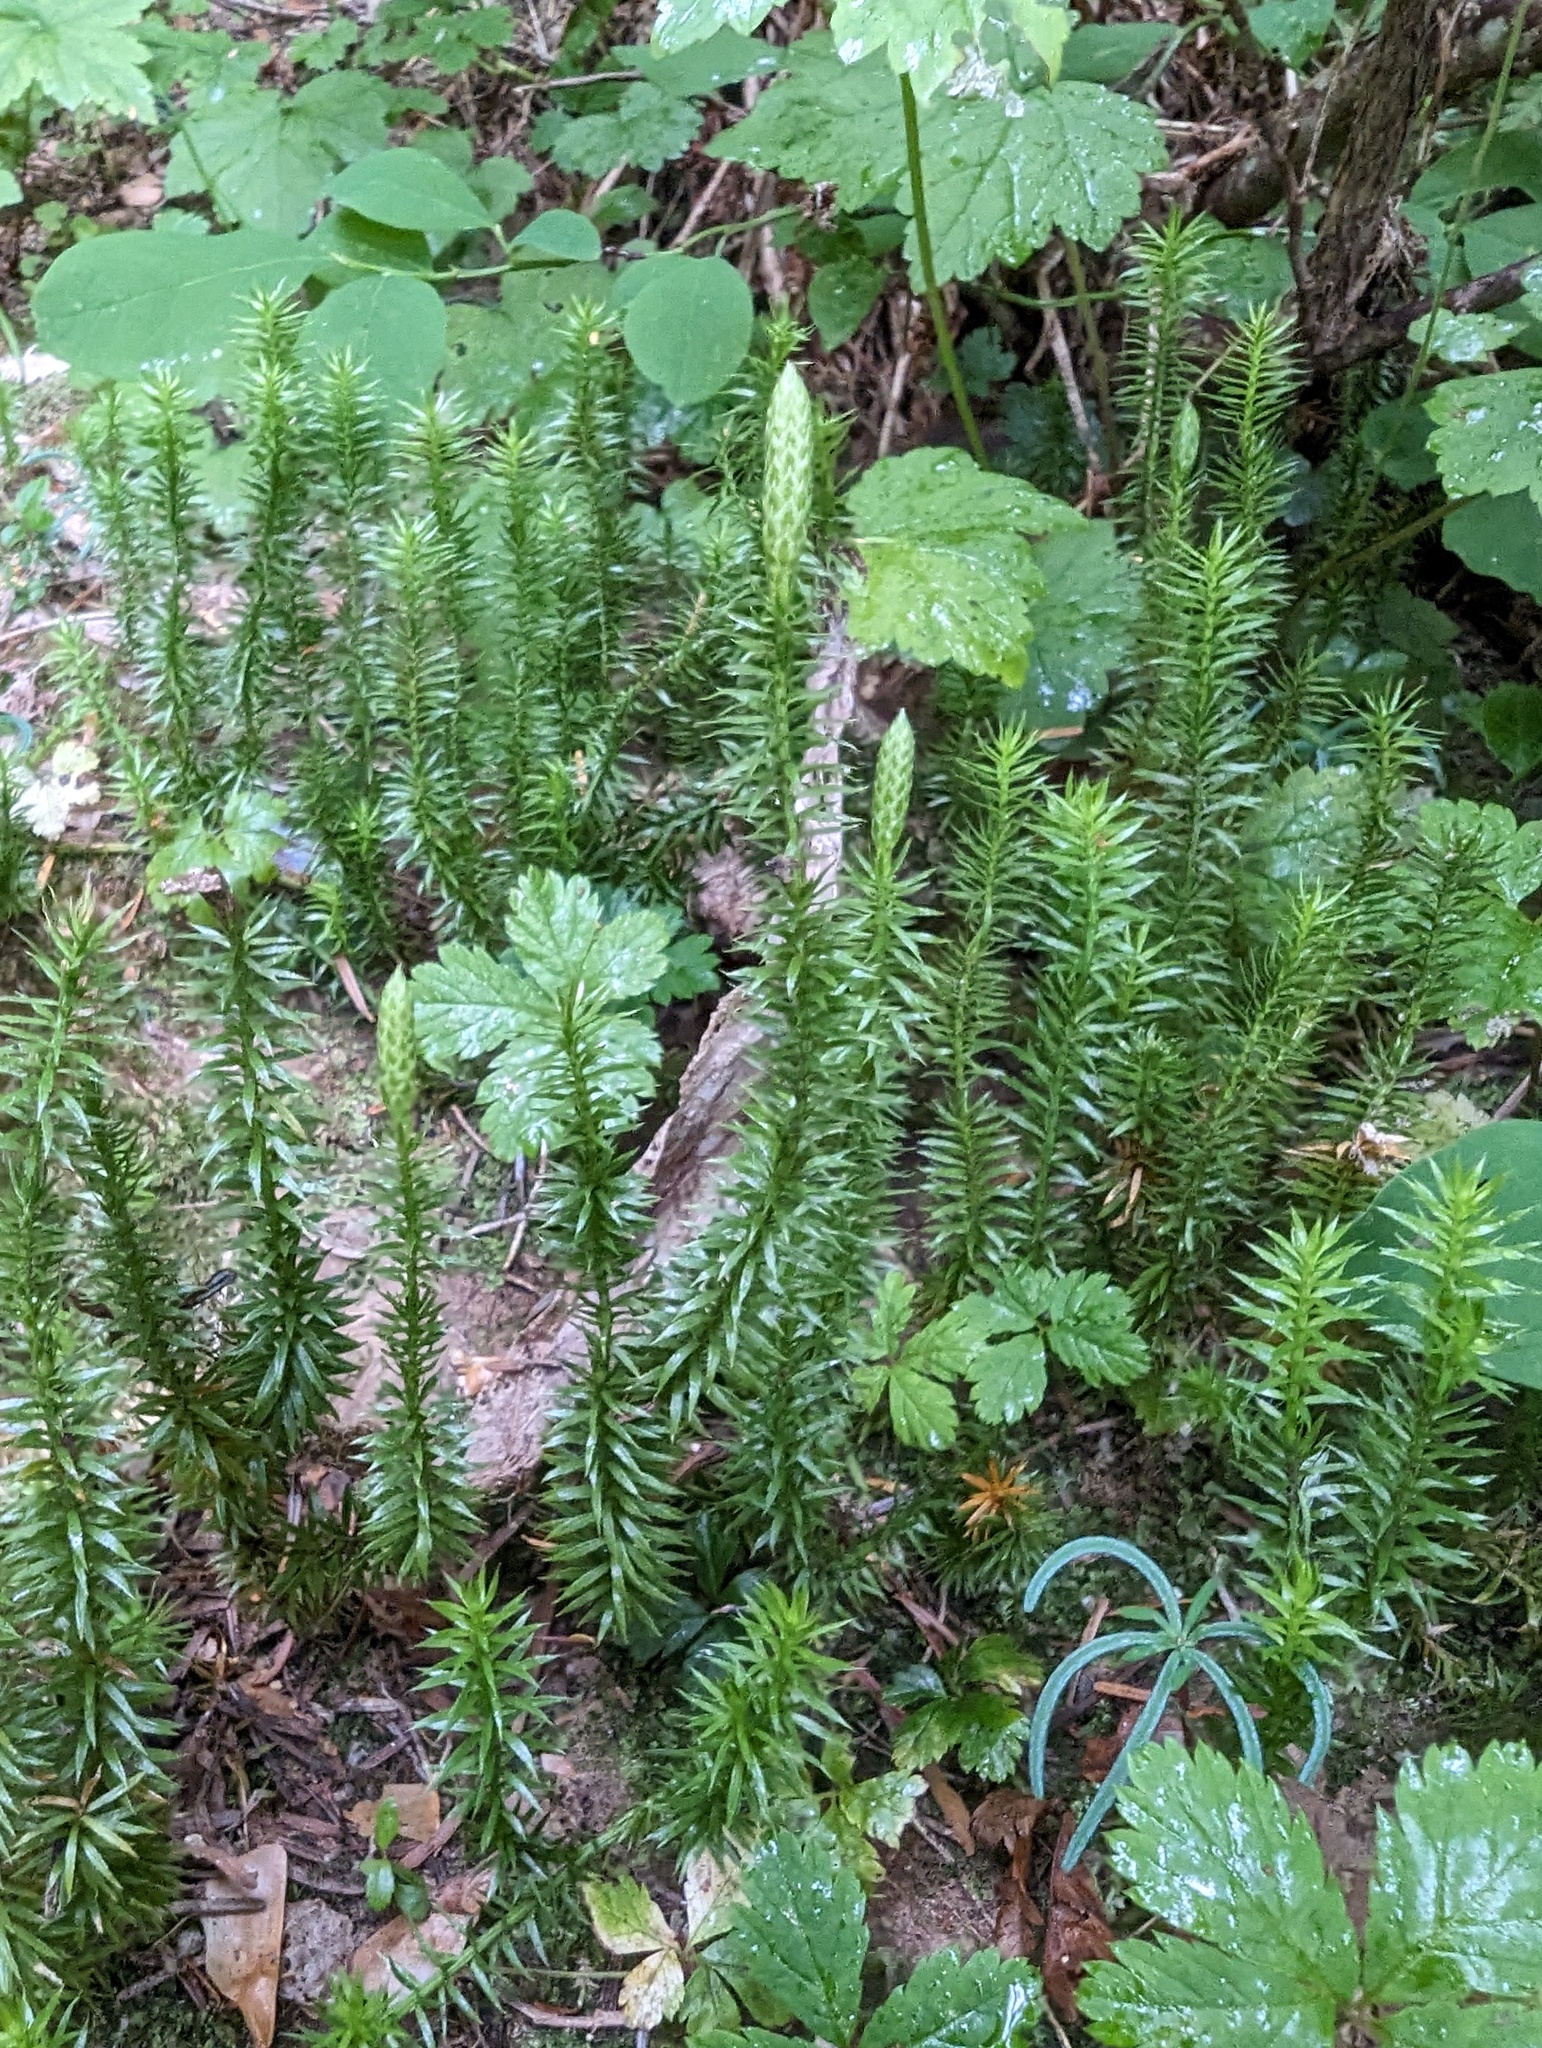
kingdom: Plantae
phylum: Tracheophyta
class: Lycopodiopsida
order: Lycopodiales
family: Lycopodiaceae
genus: Spinulum
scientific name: Spinulum annotinum
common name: Interrupted club-moss
